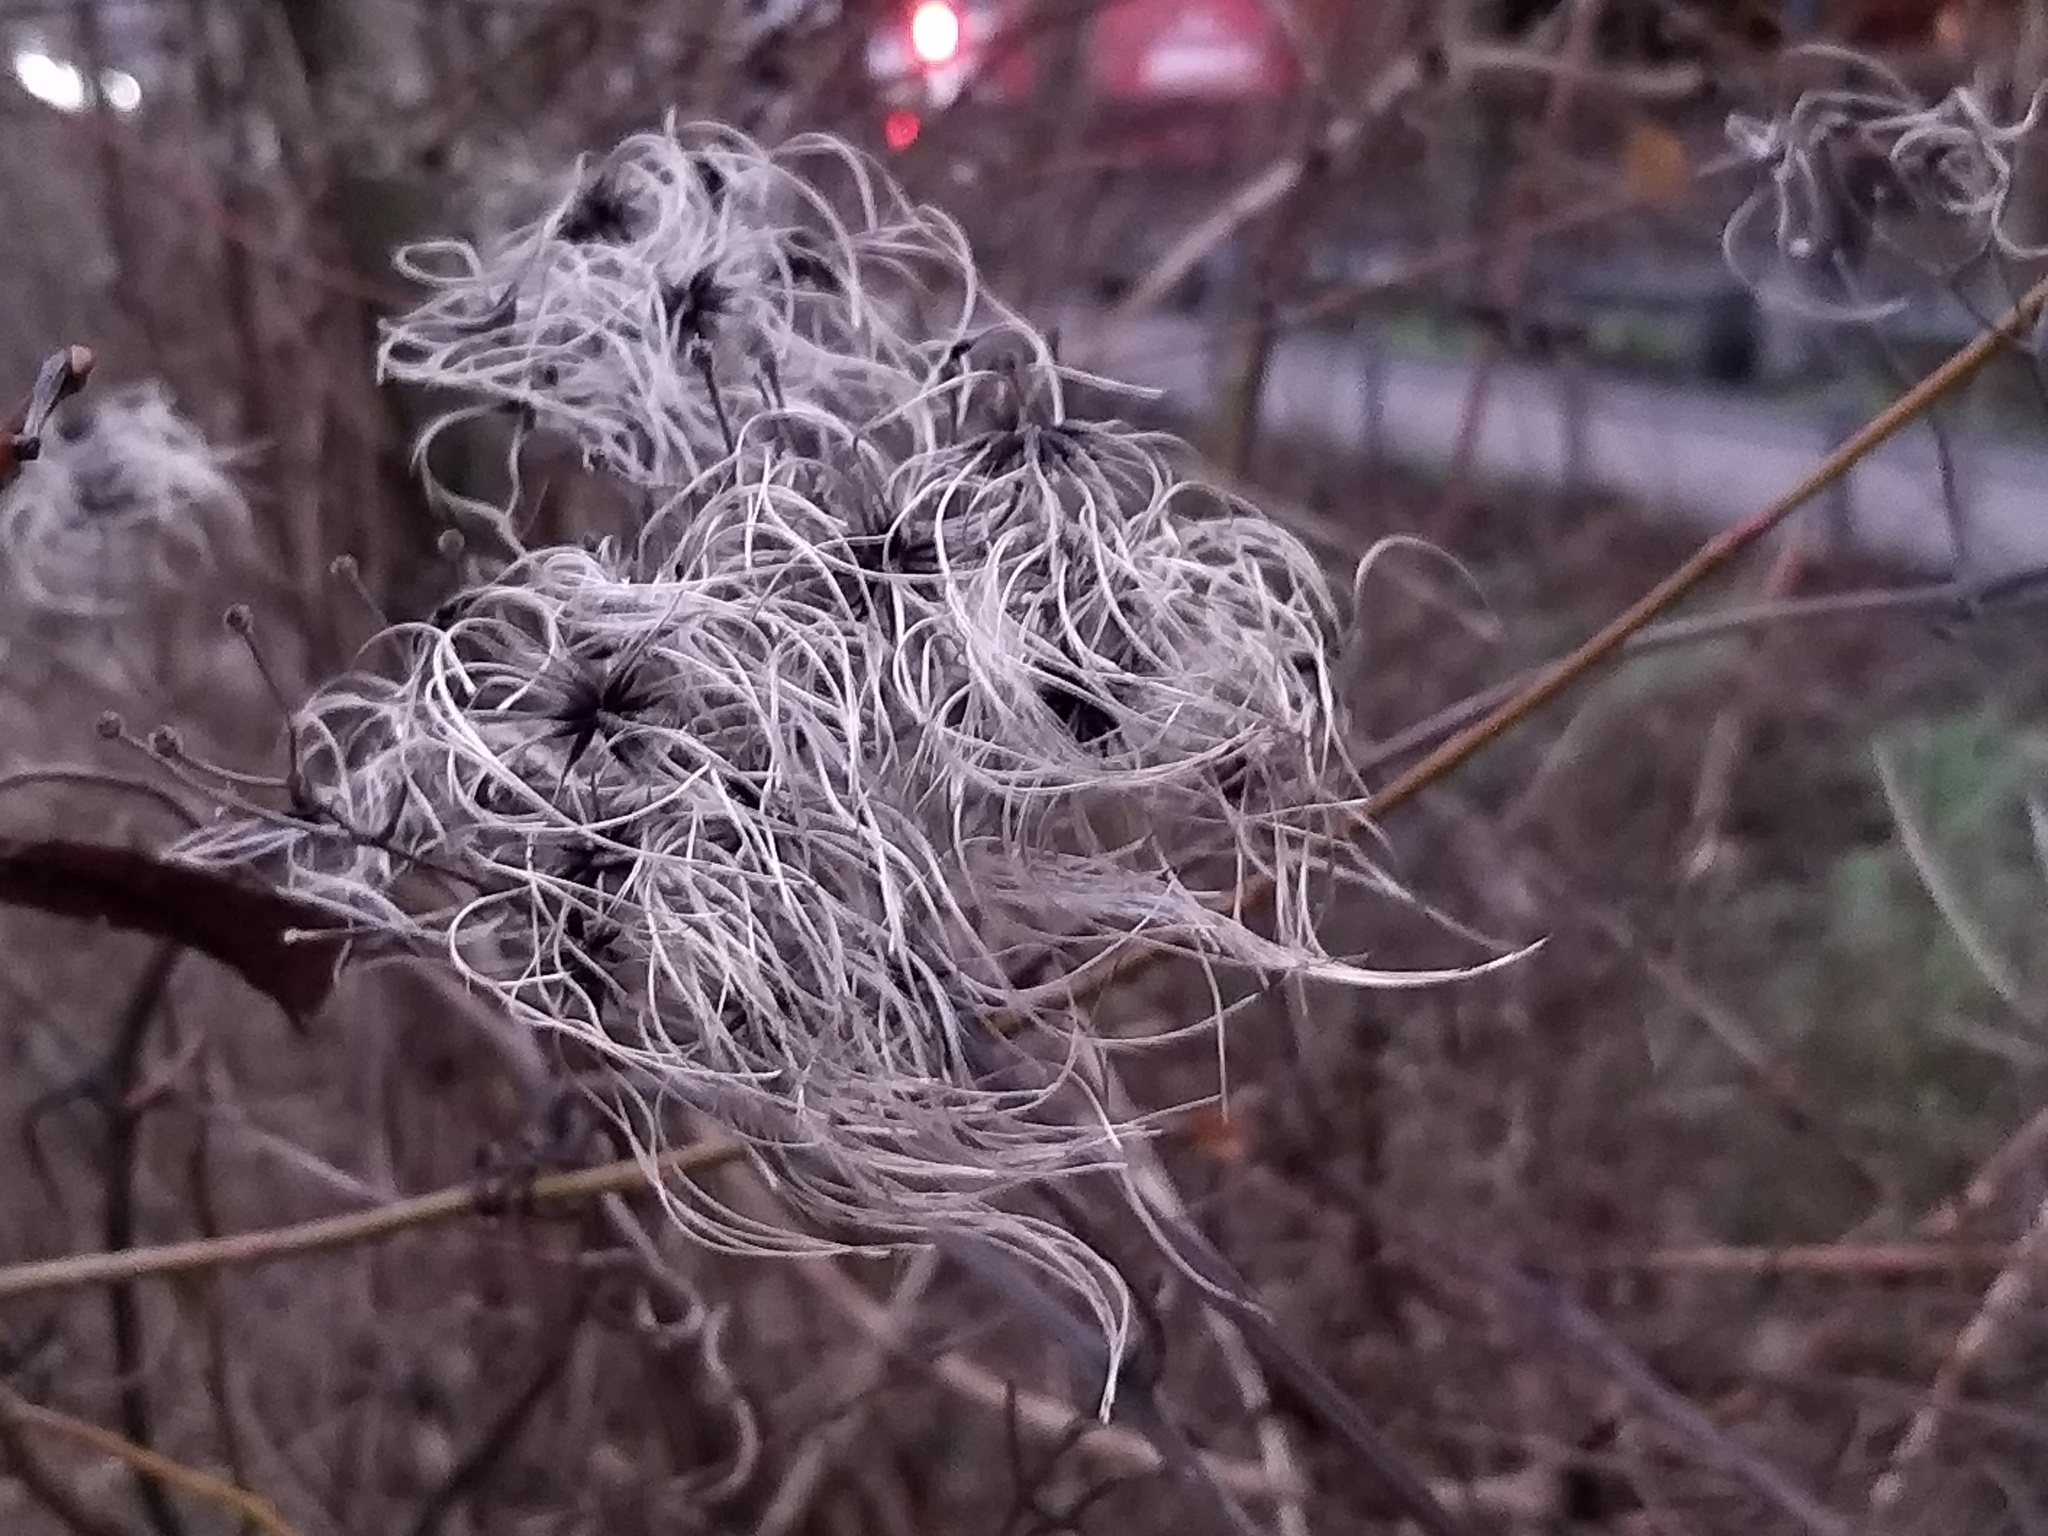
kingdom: Plantae
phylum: Tracheophyta
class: Magnoliopsida
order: Ranunculales
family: Ranunculaceae
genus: Clematis
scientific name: Clematis vitalba
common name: Evergreen clematis
